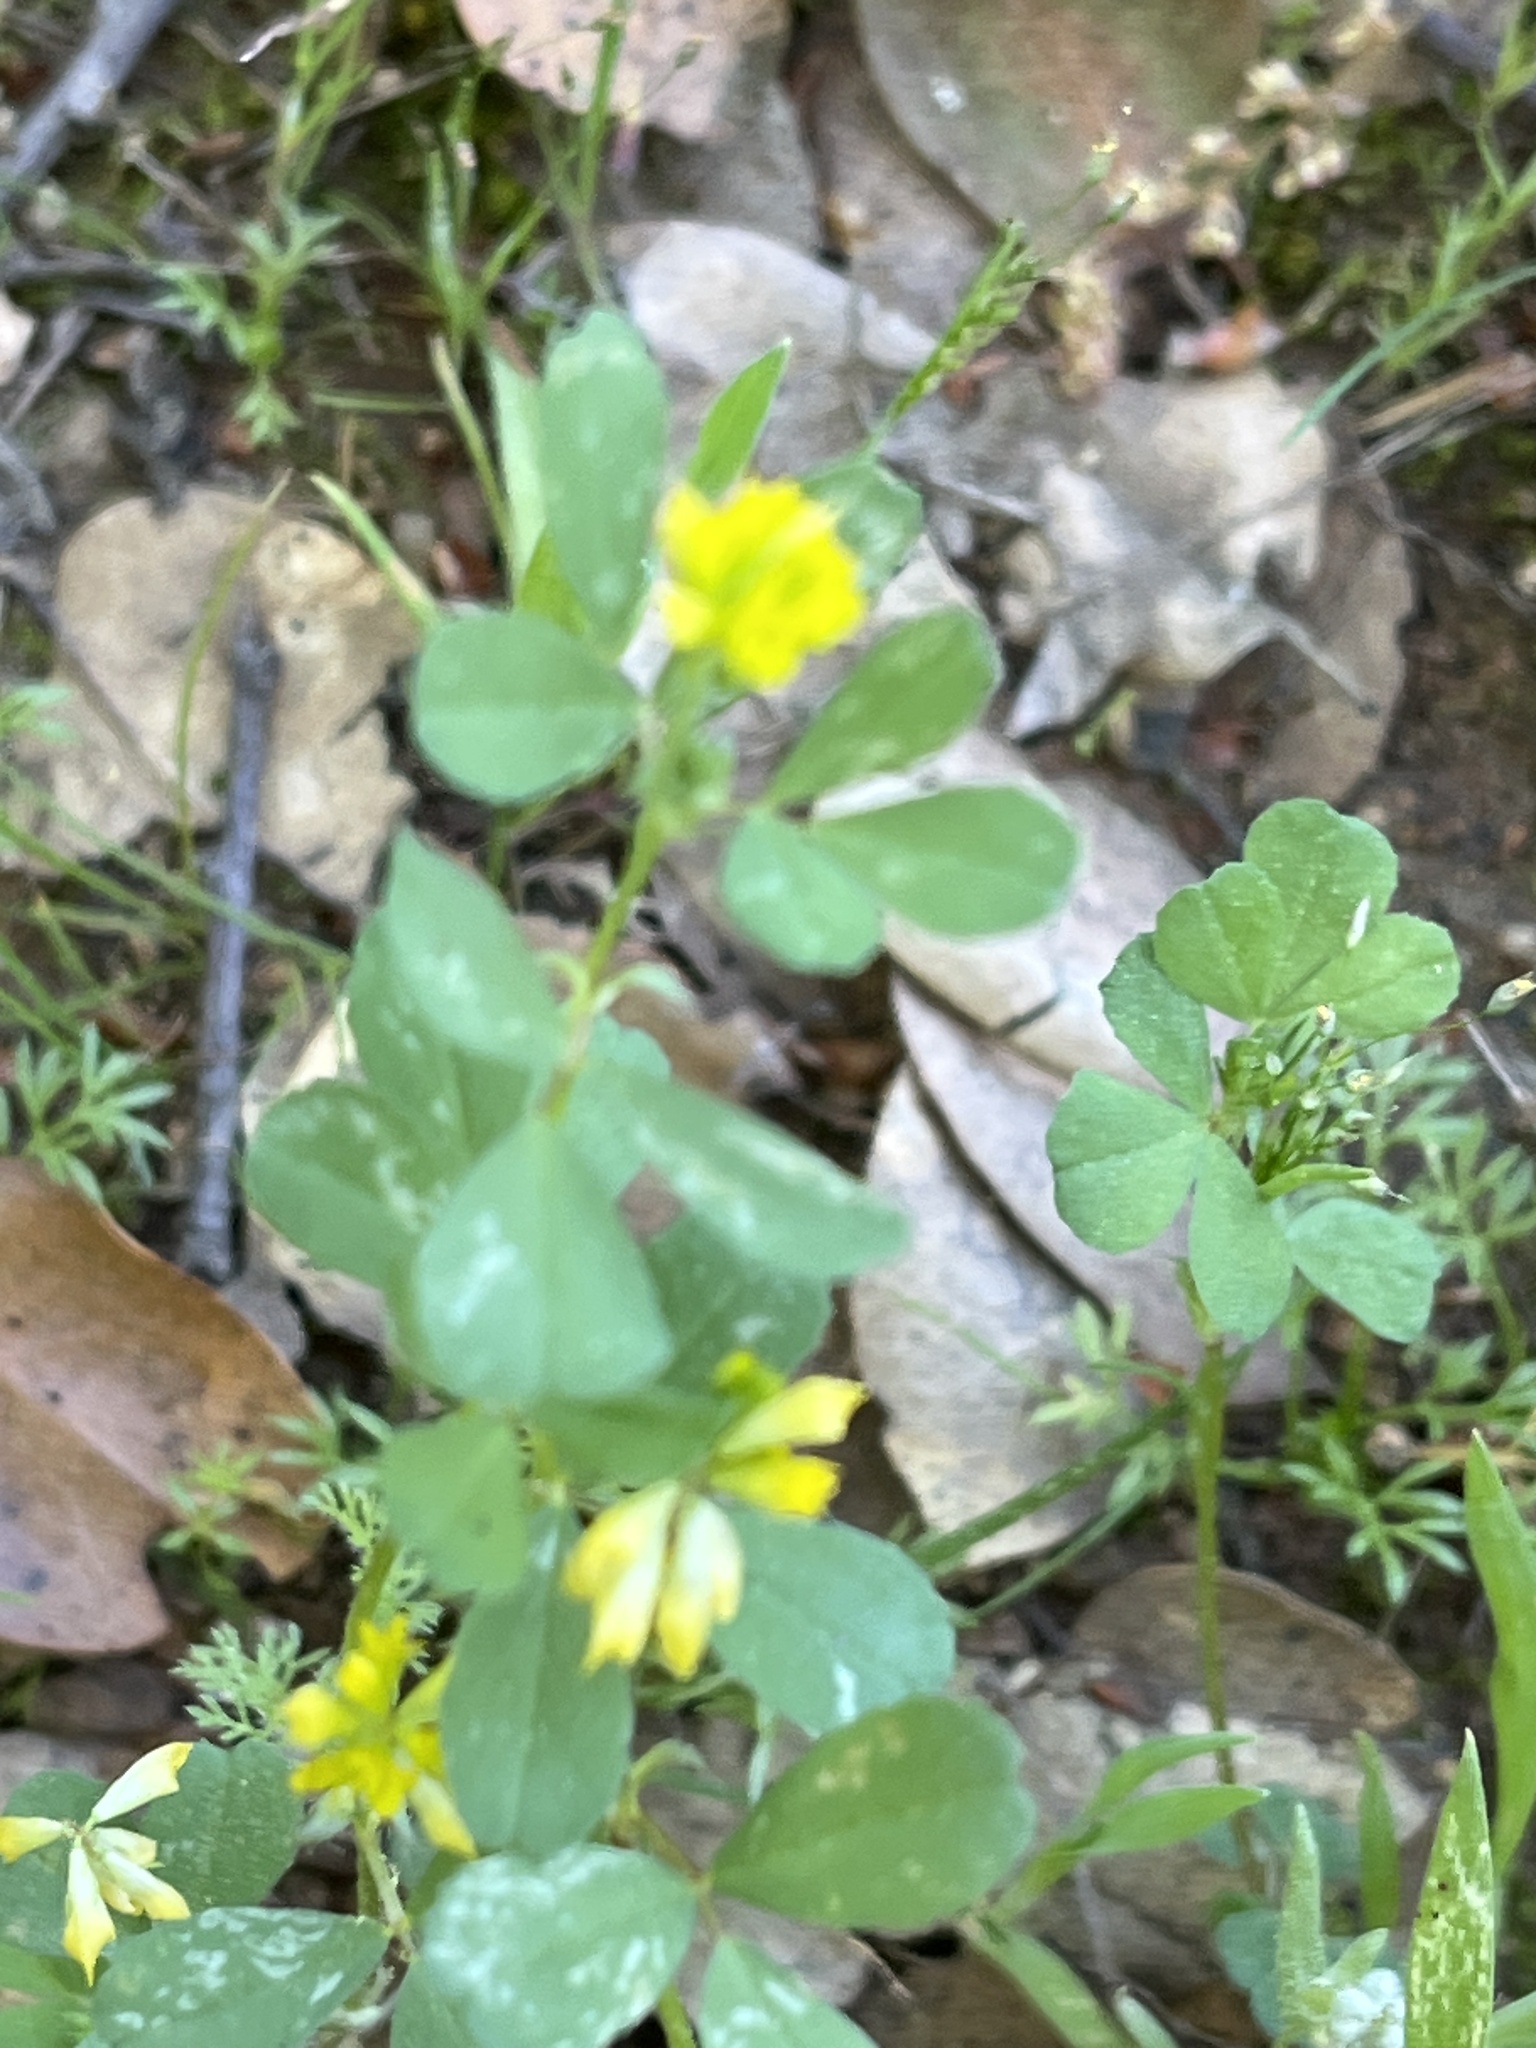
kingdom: Plantae
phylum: Tracheophyta
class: Magnoliopsida
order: Fabales
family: Fabaceae
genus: Trifolium
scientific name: Trifolium dubium
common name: Suckling clover
